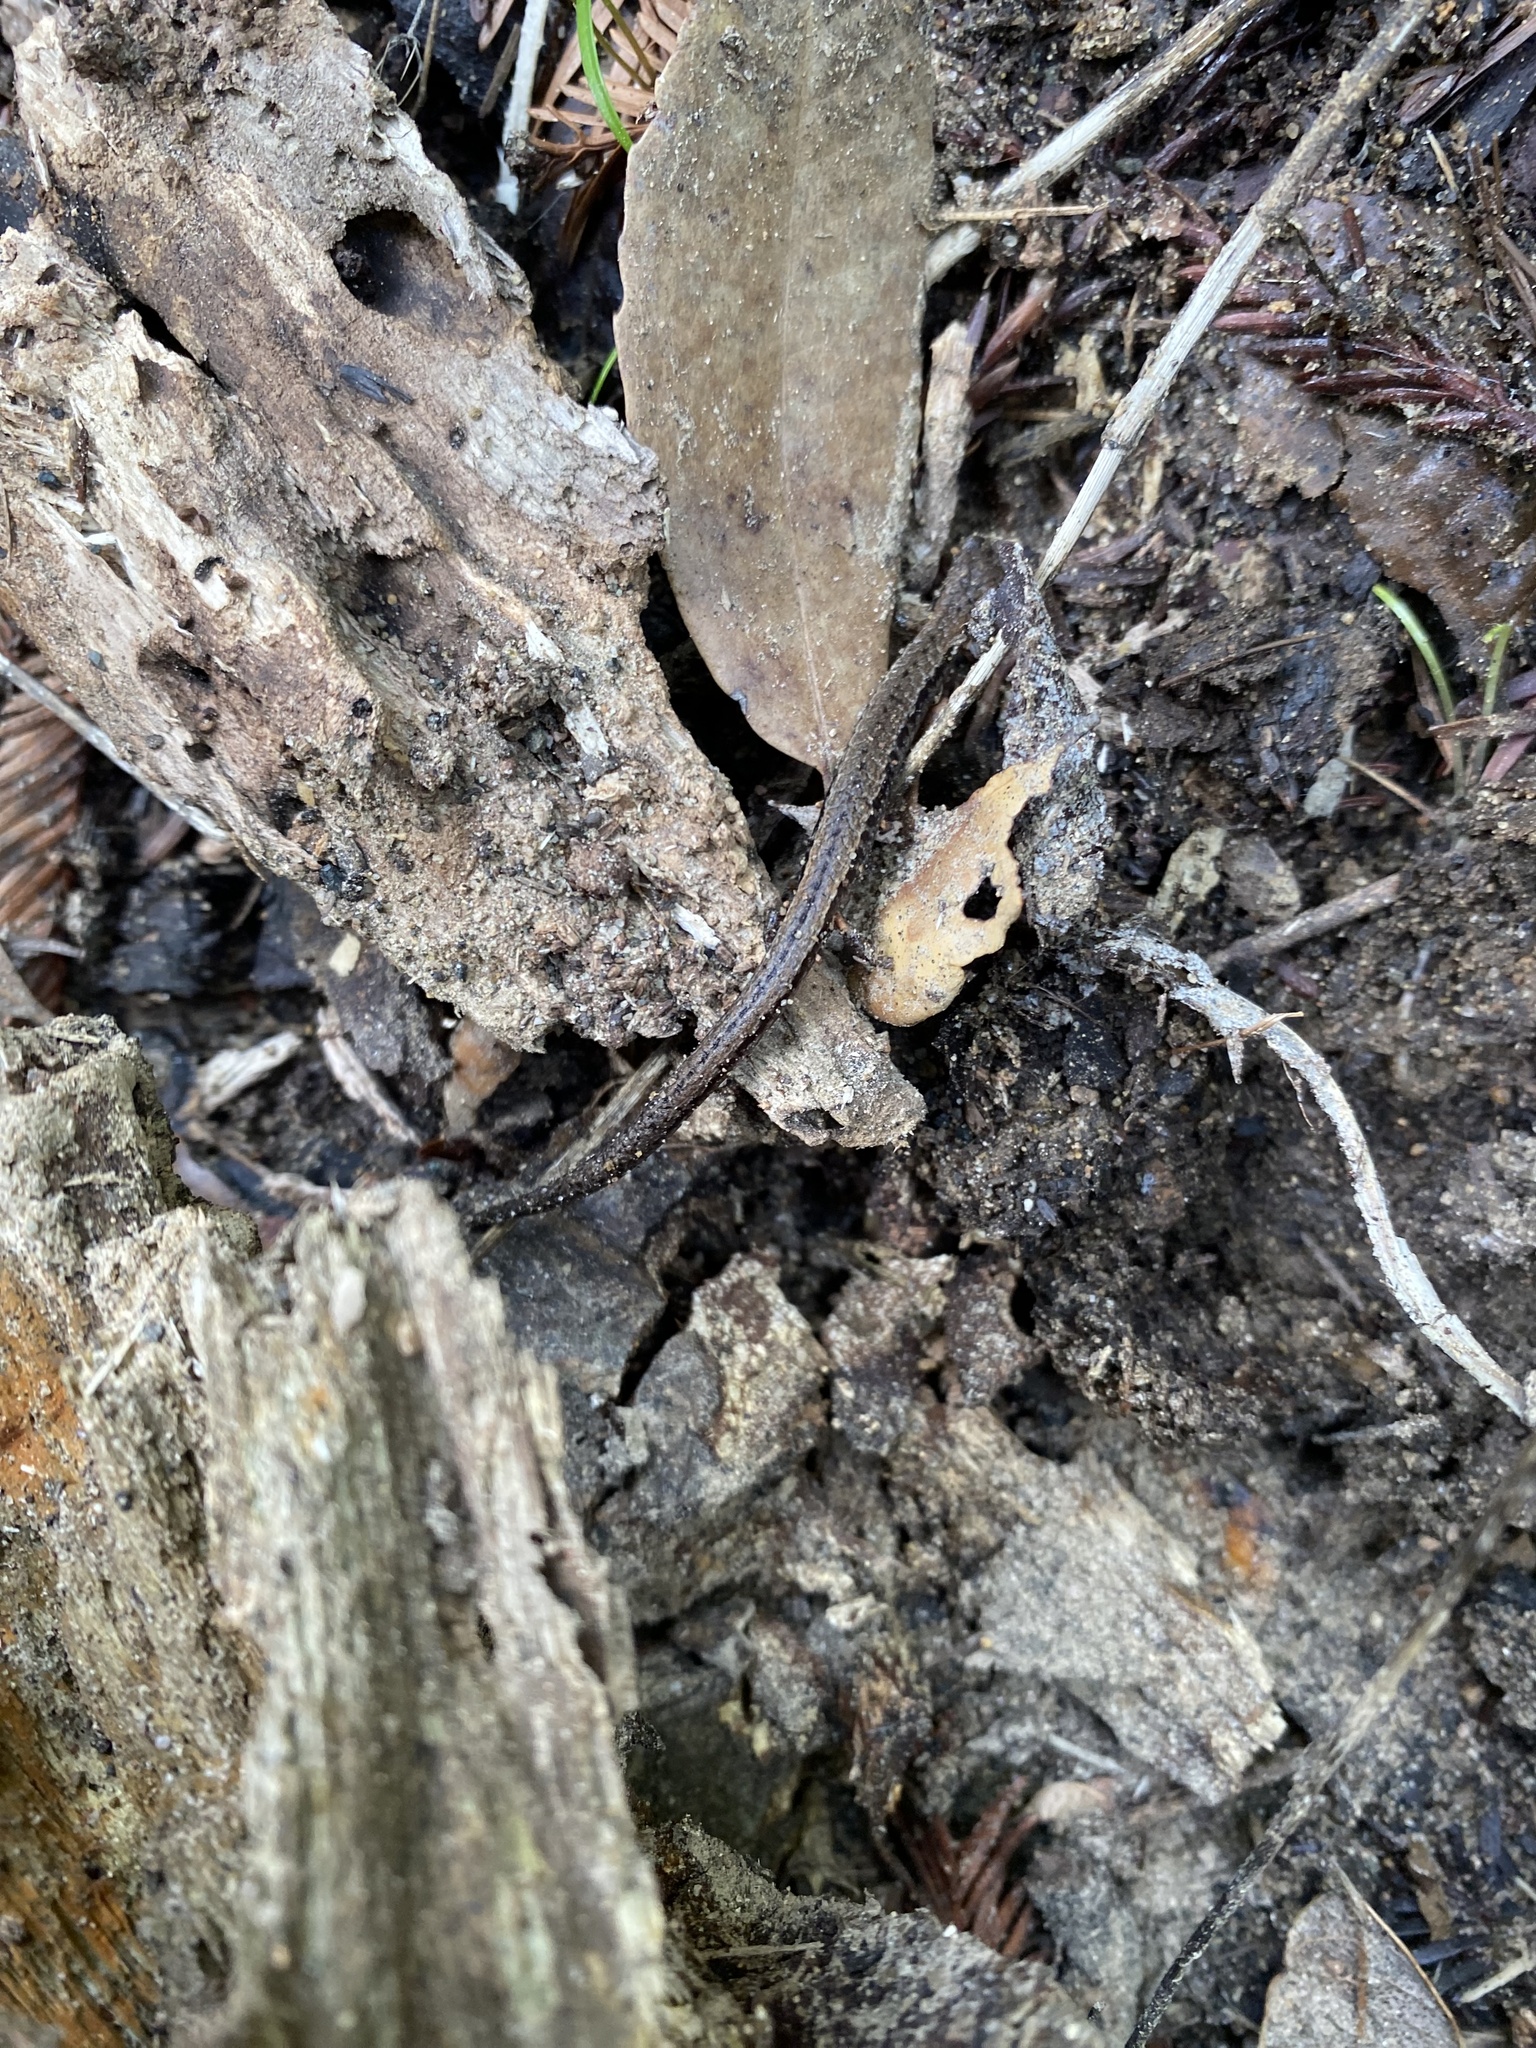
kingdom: Animalia
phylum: Chordata
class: Amphibia
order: Caudata
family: Plethodontidae
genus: Batrachoseps
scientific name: Batrachoseps attenuatus
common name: California slender salamander
